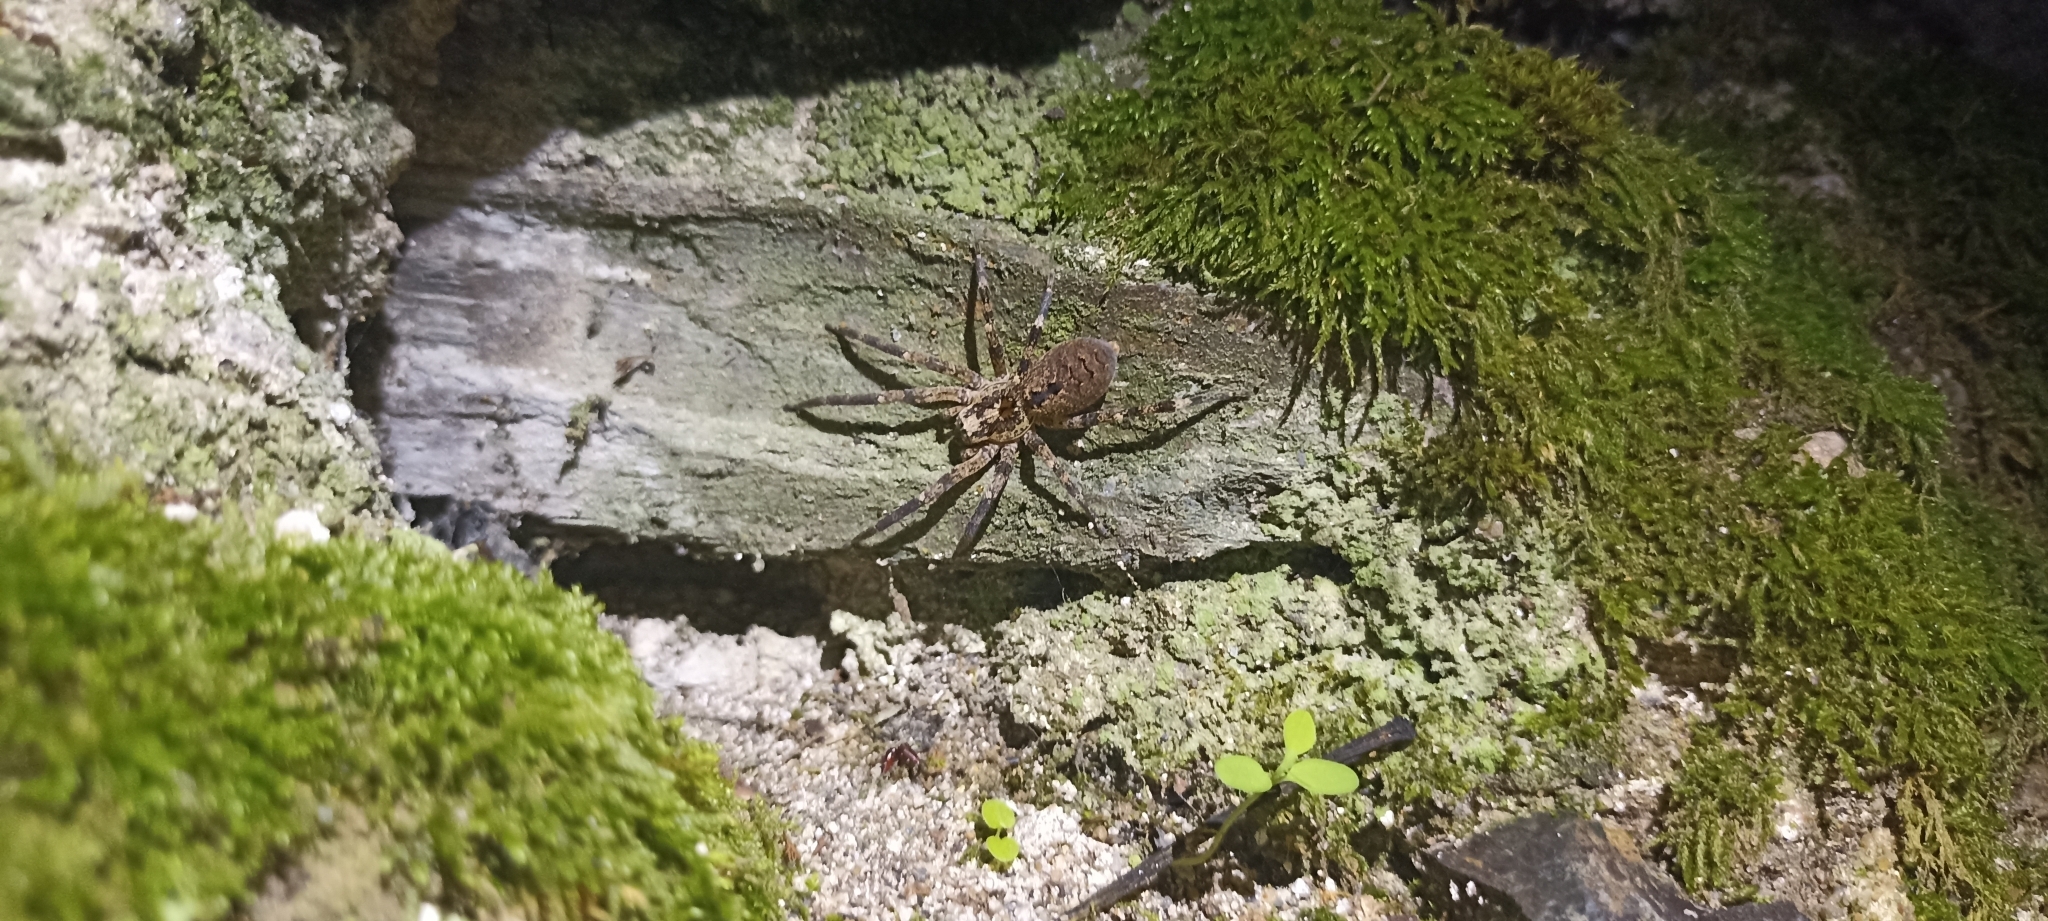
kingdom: Animalia
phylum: Arthropoda
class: Arachnida
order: Araneae
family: Zoropsidae
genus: Zoropsis
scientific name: Zoropsis spinimana
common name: Zoropsid spider
